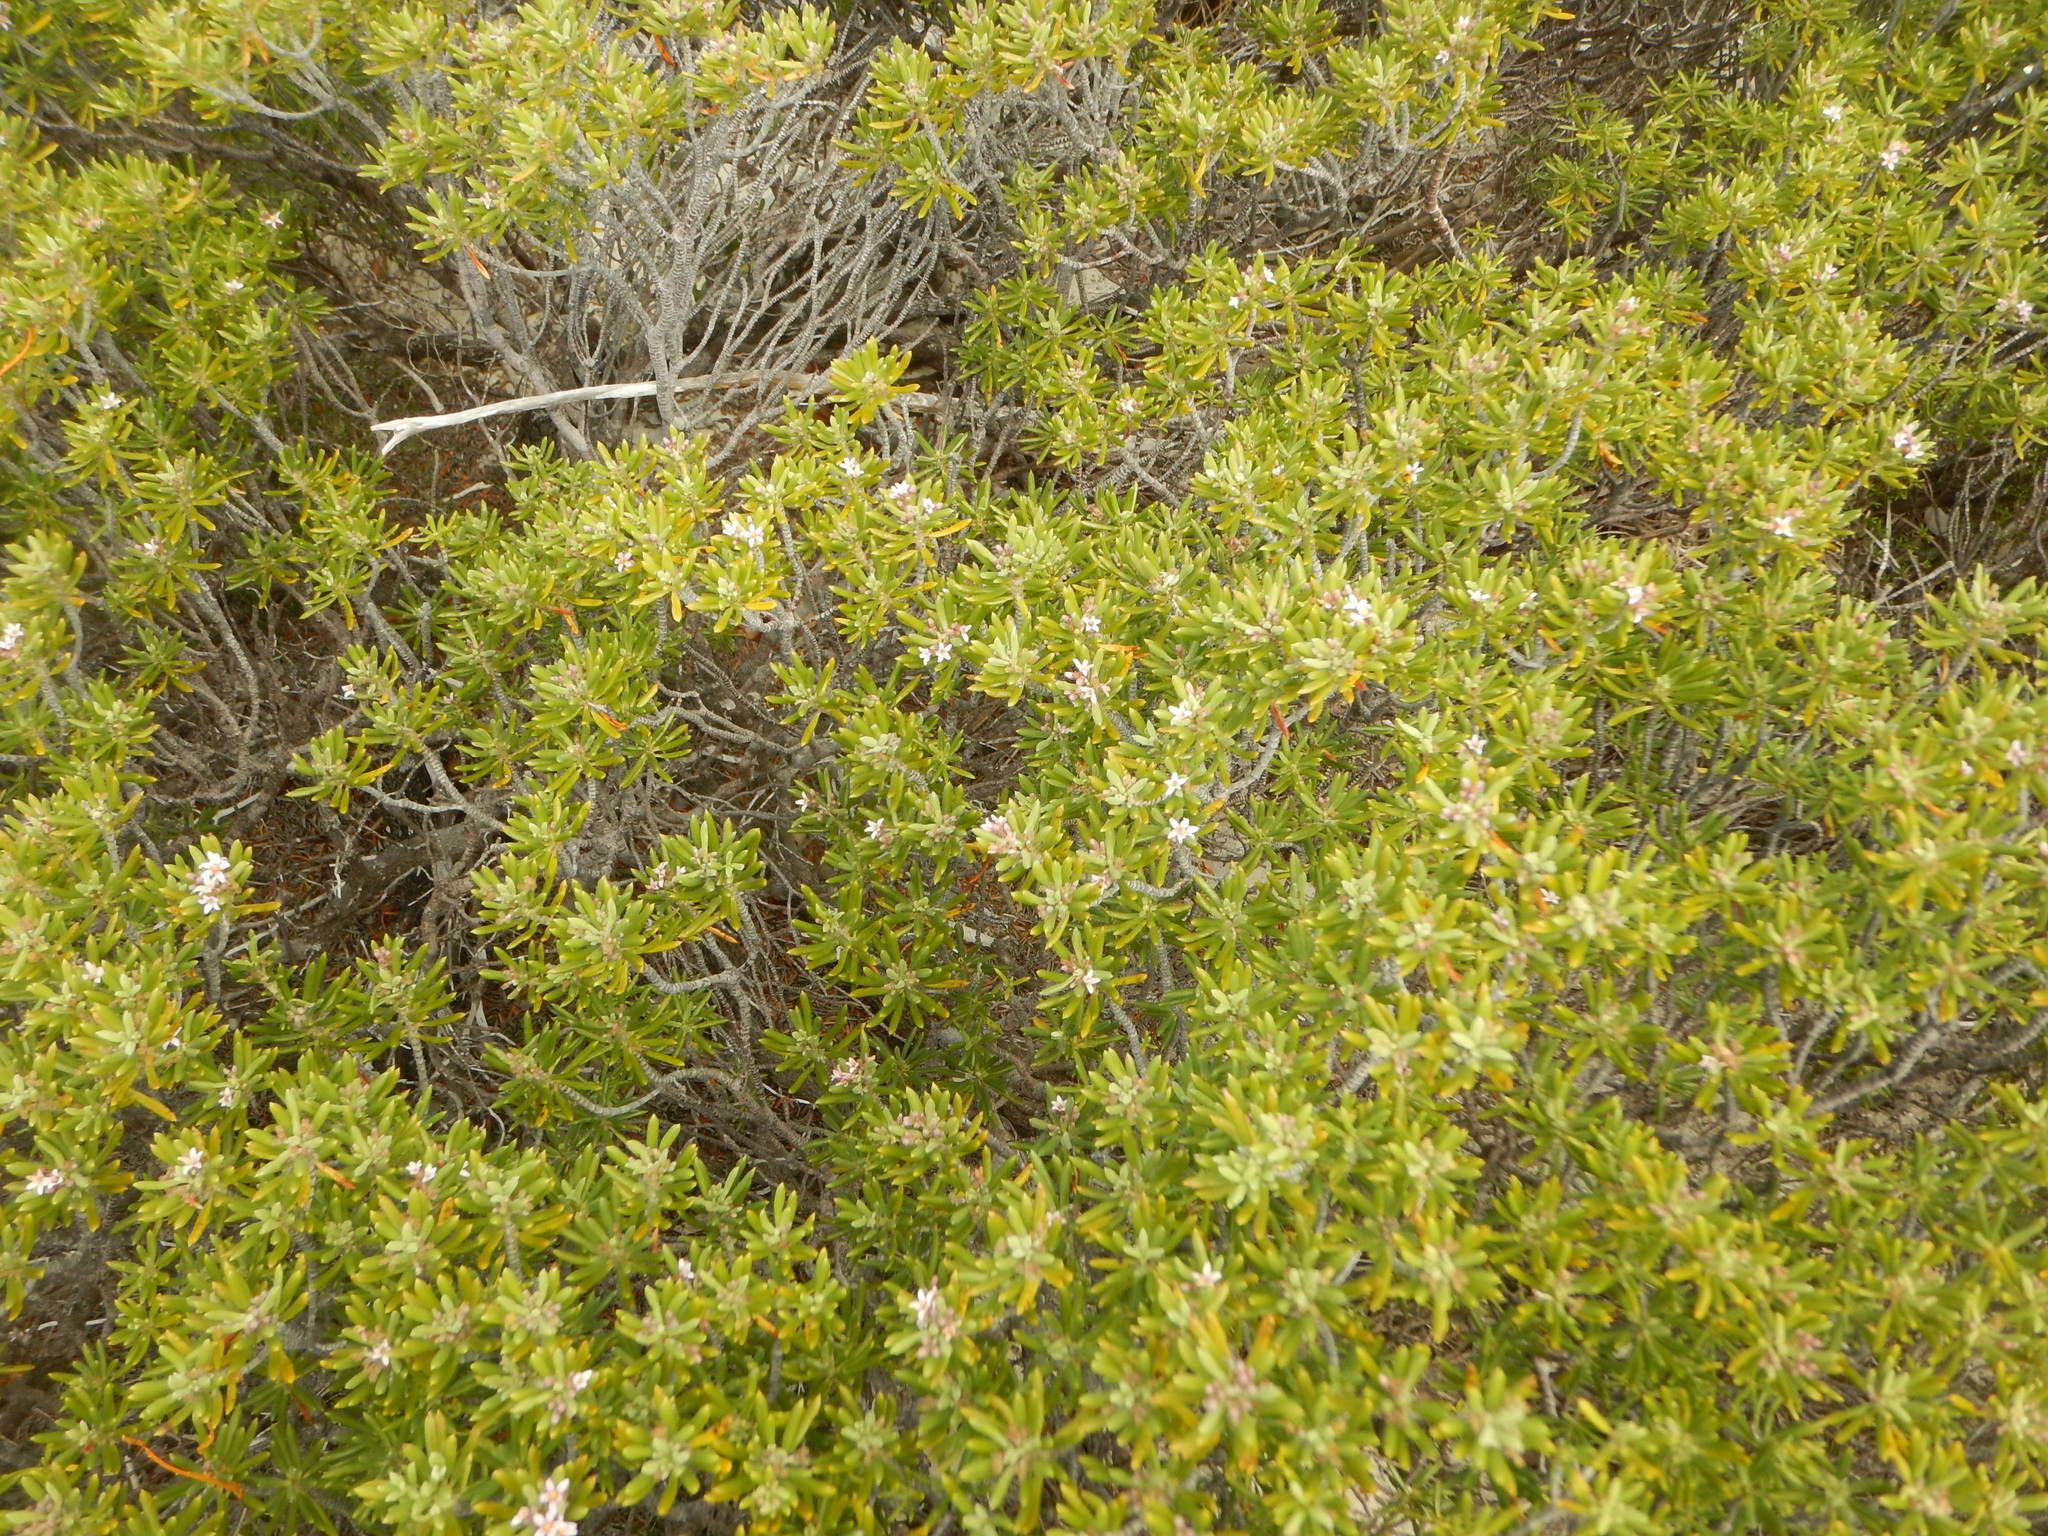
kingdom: Plantae
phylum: Tracheophyta
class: Magnoliopsida
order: Gentianales
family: Rubiaceae
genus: Strumpfia
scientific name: Strumpfia maritima
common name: Pride-of-big pine
